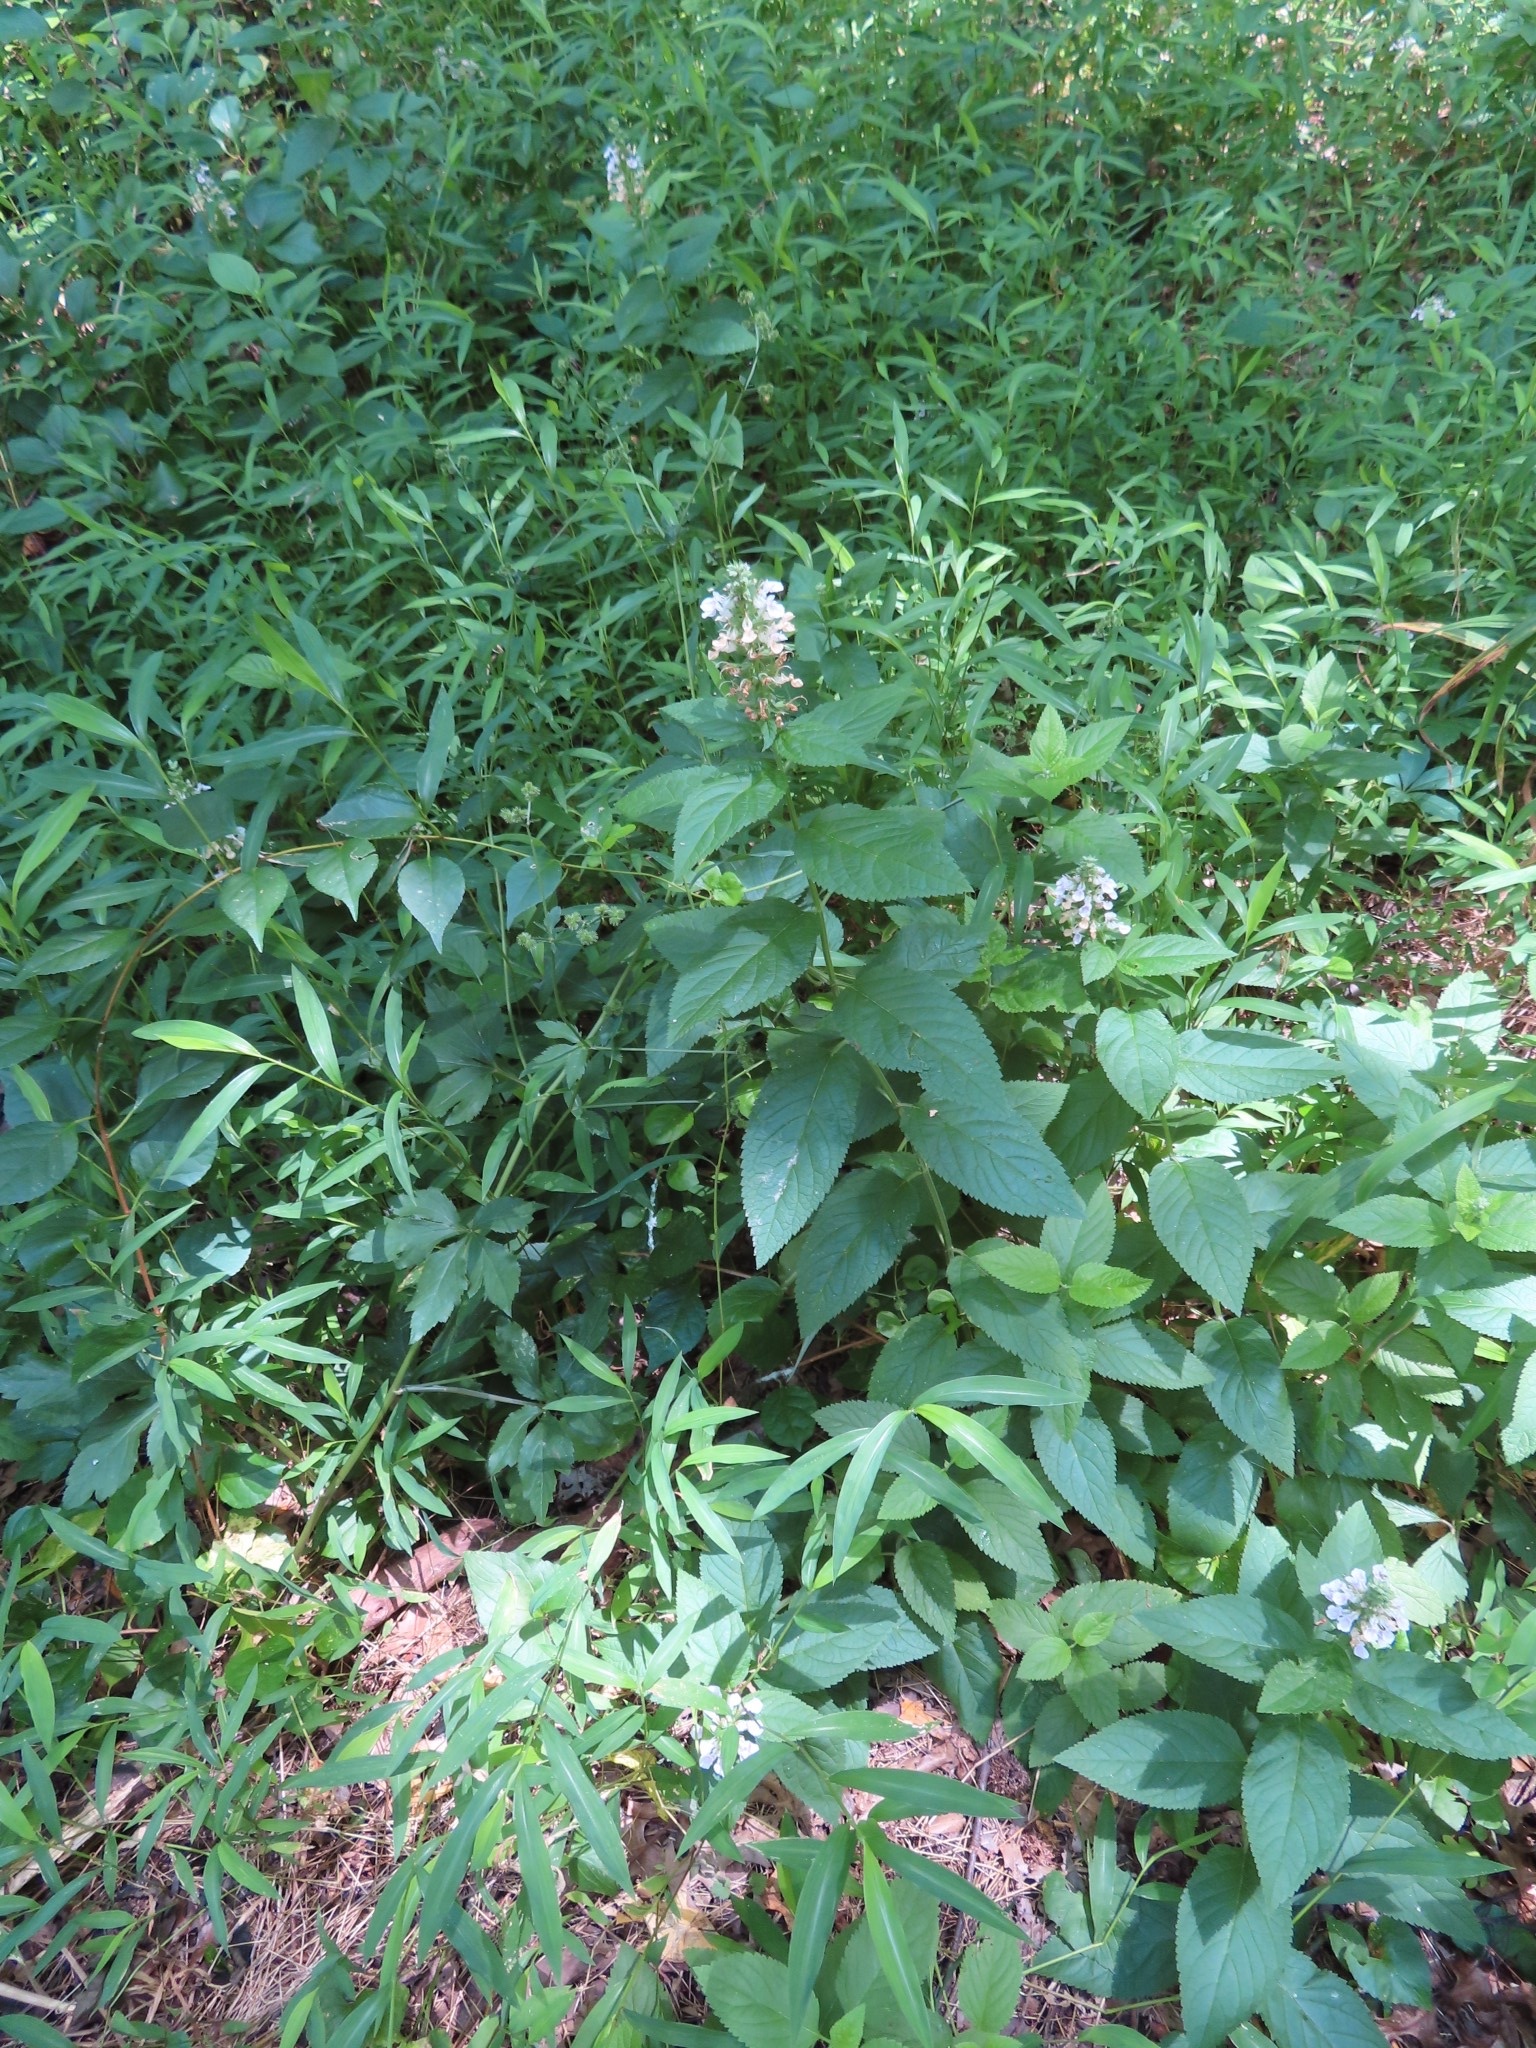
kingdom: Plantae
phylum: Tracheophyta
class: Magnoliopsida
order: Lamiales
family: Lamiaceae
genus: Teucrium
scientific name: Teucrium canadense
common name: American germander
